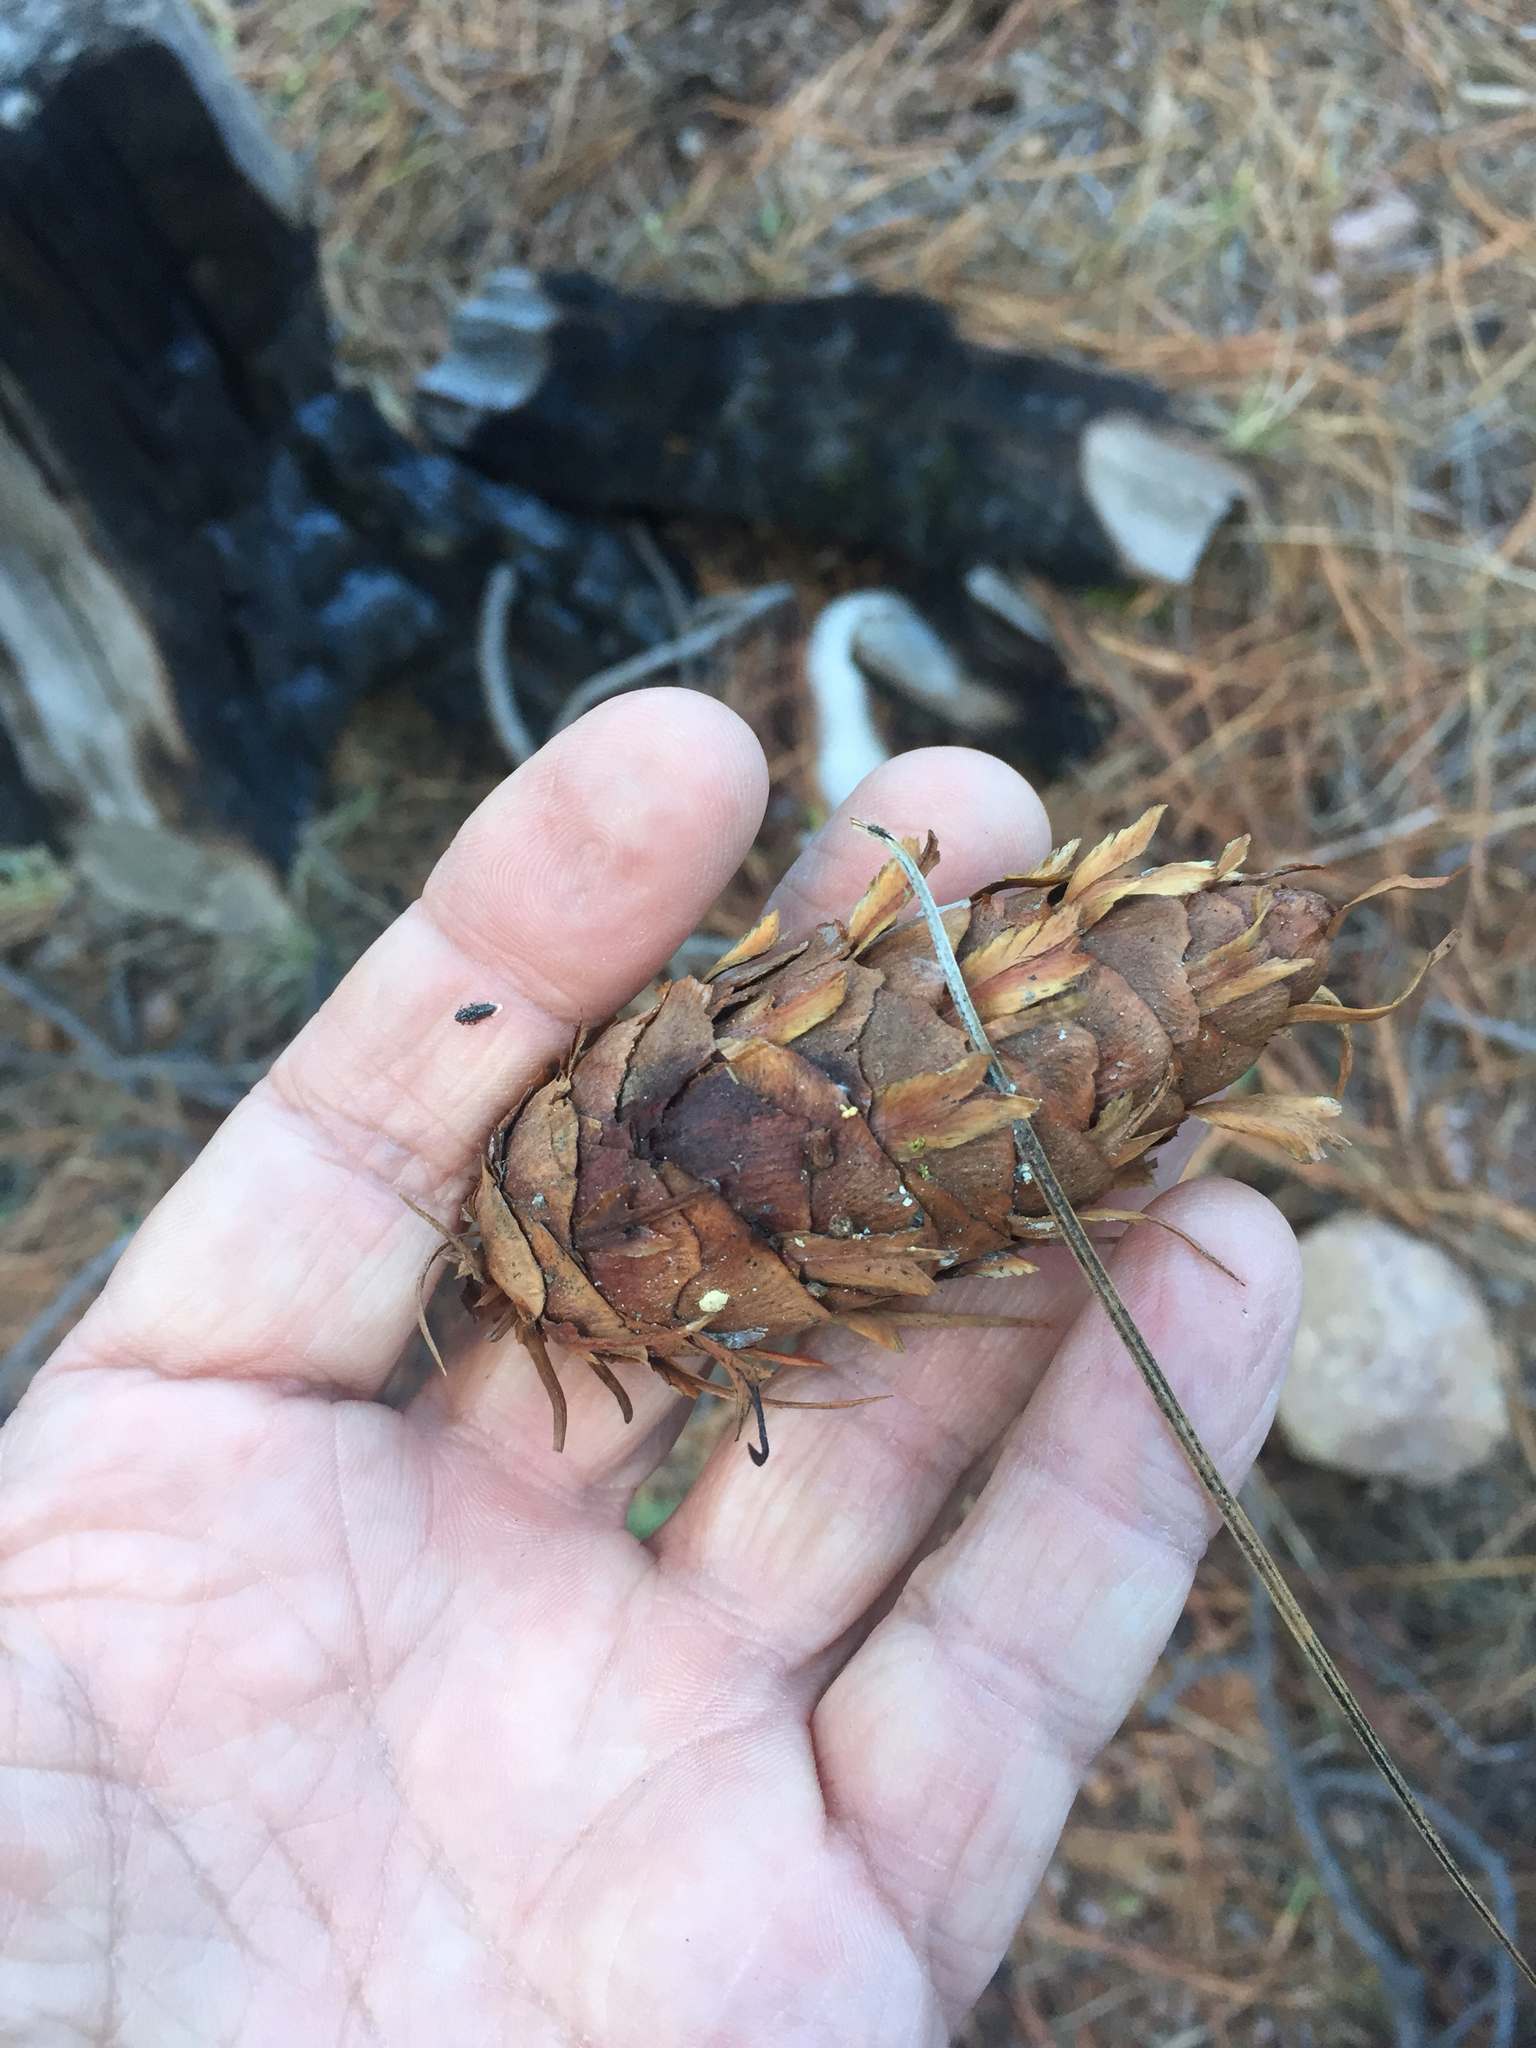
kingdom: Plantae
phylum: Tracheophyta
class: Pinopsida
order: Pinales
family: Pinaceae
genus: Pseudotsuga
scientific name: Pseudotsuga menziesii
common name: Douglas fir
